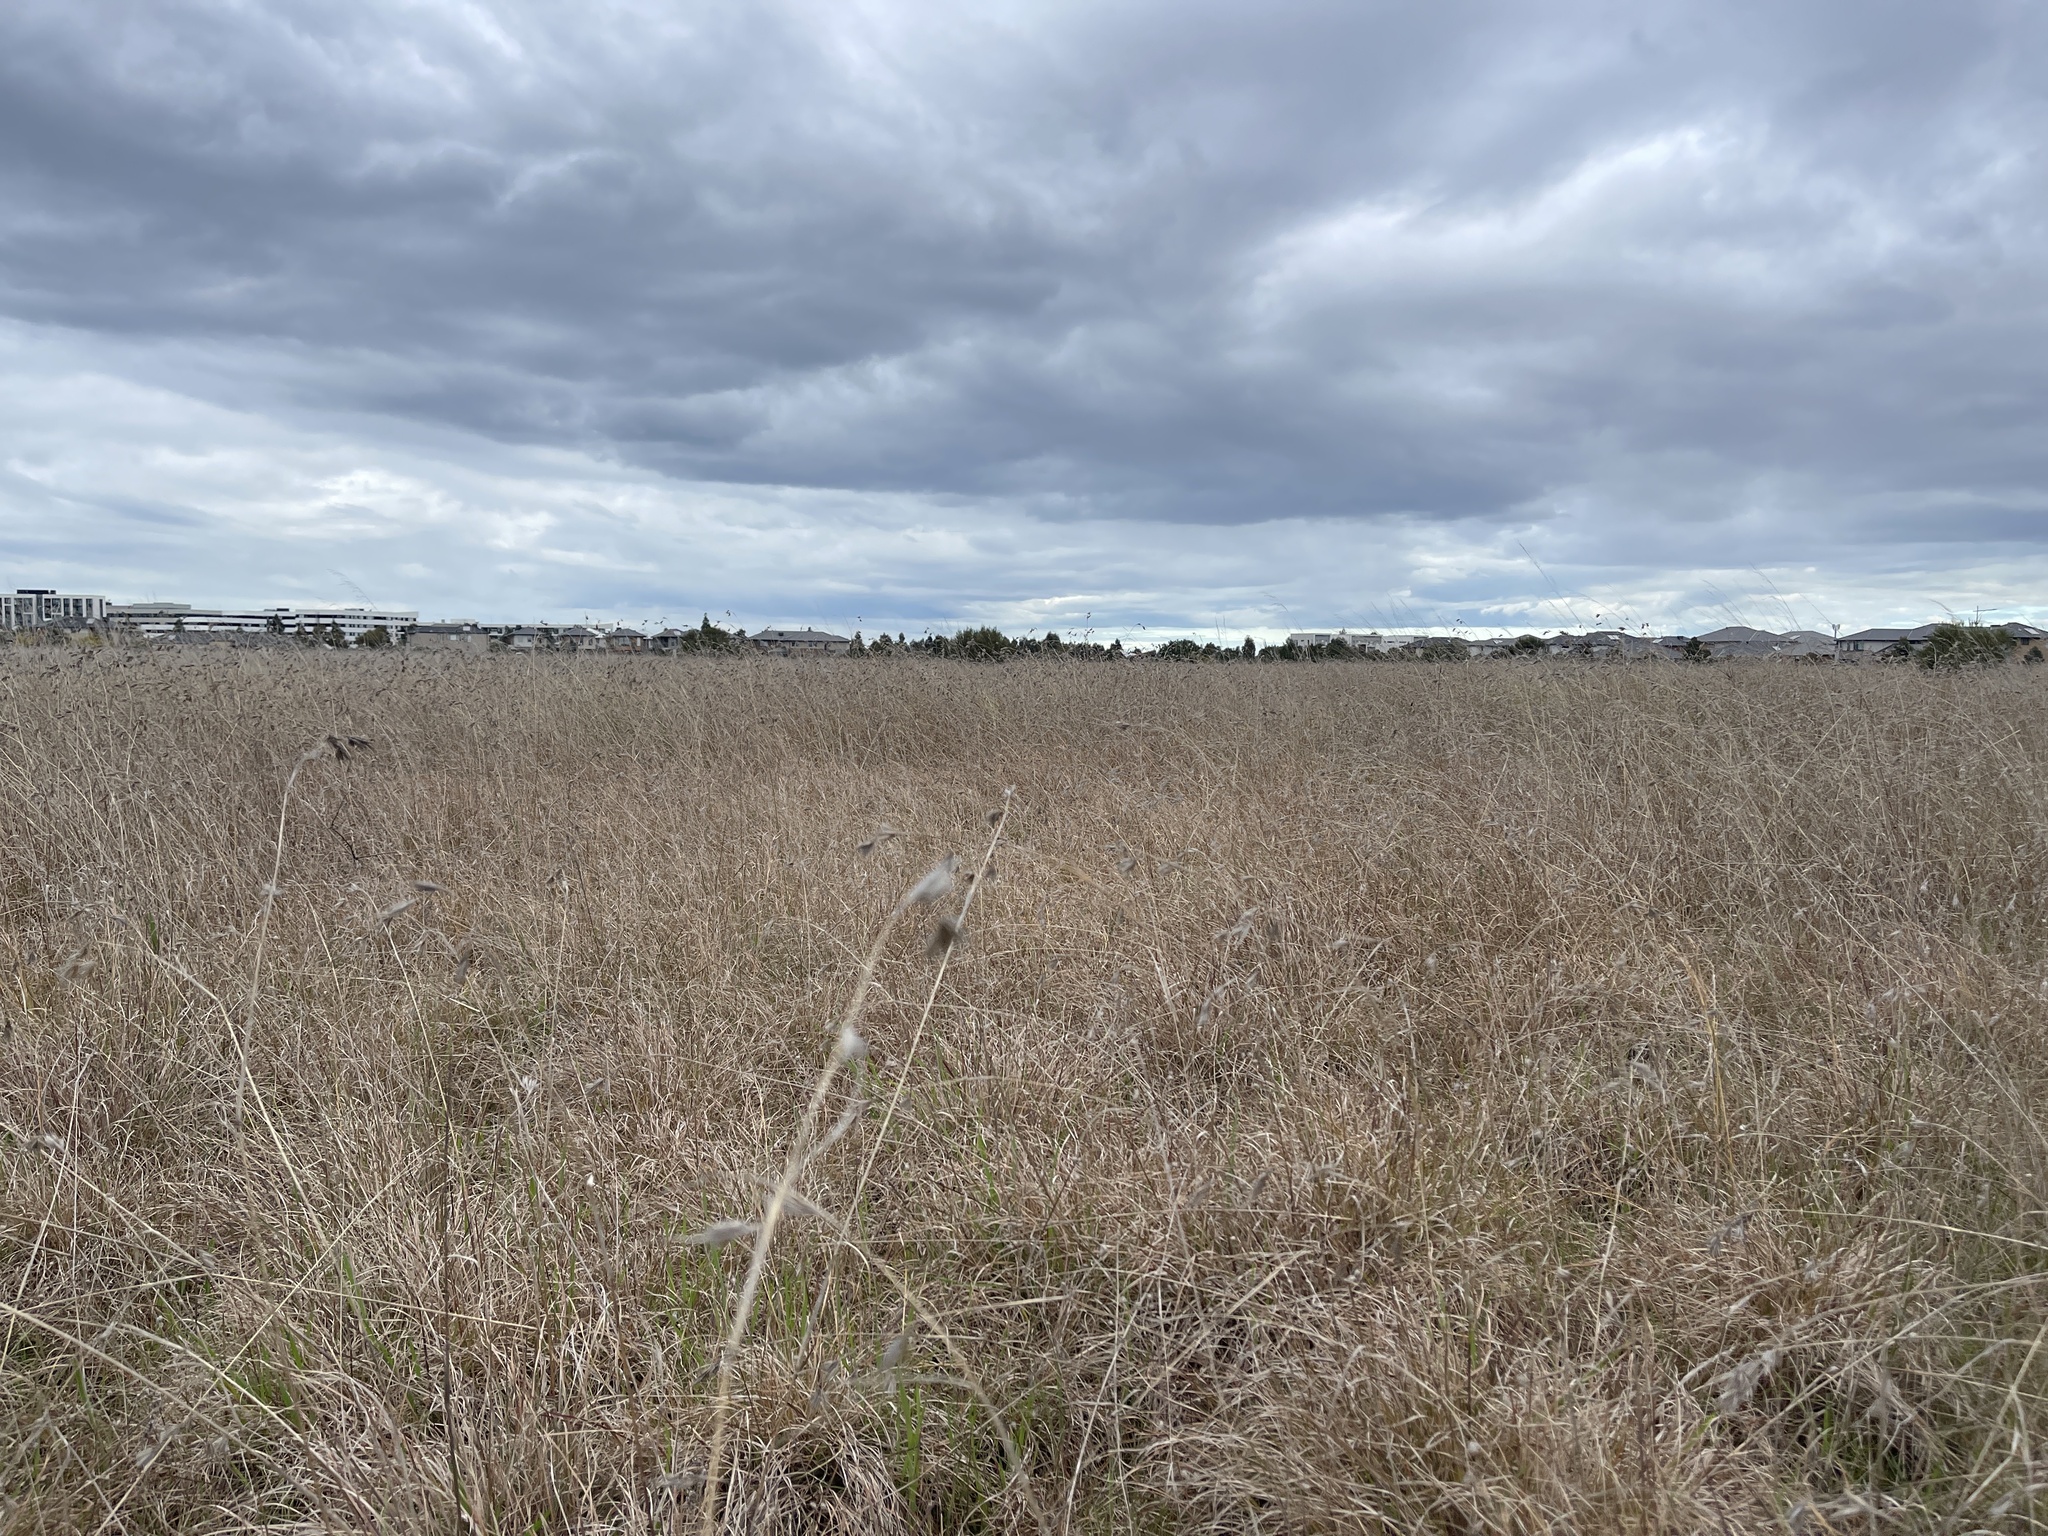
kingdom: Plantae
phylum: Tracheophyta
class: Liliopsida
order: Poales
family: Poaceae
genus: Themeda
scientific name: Themeda triandra
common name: Kangaroo grass
